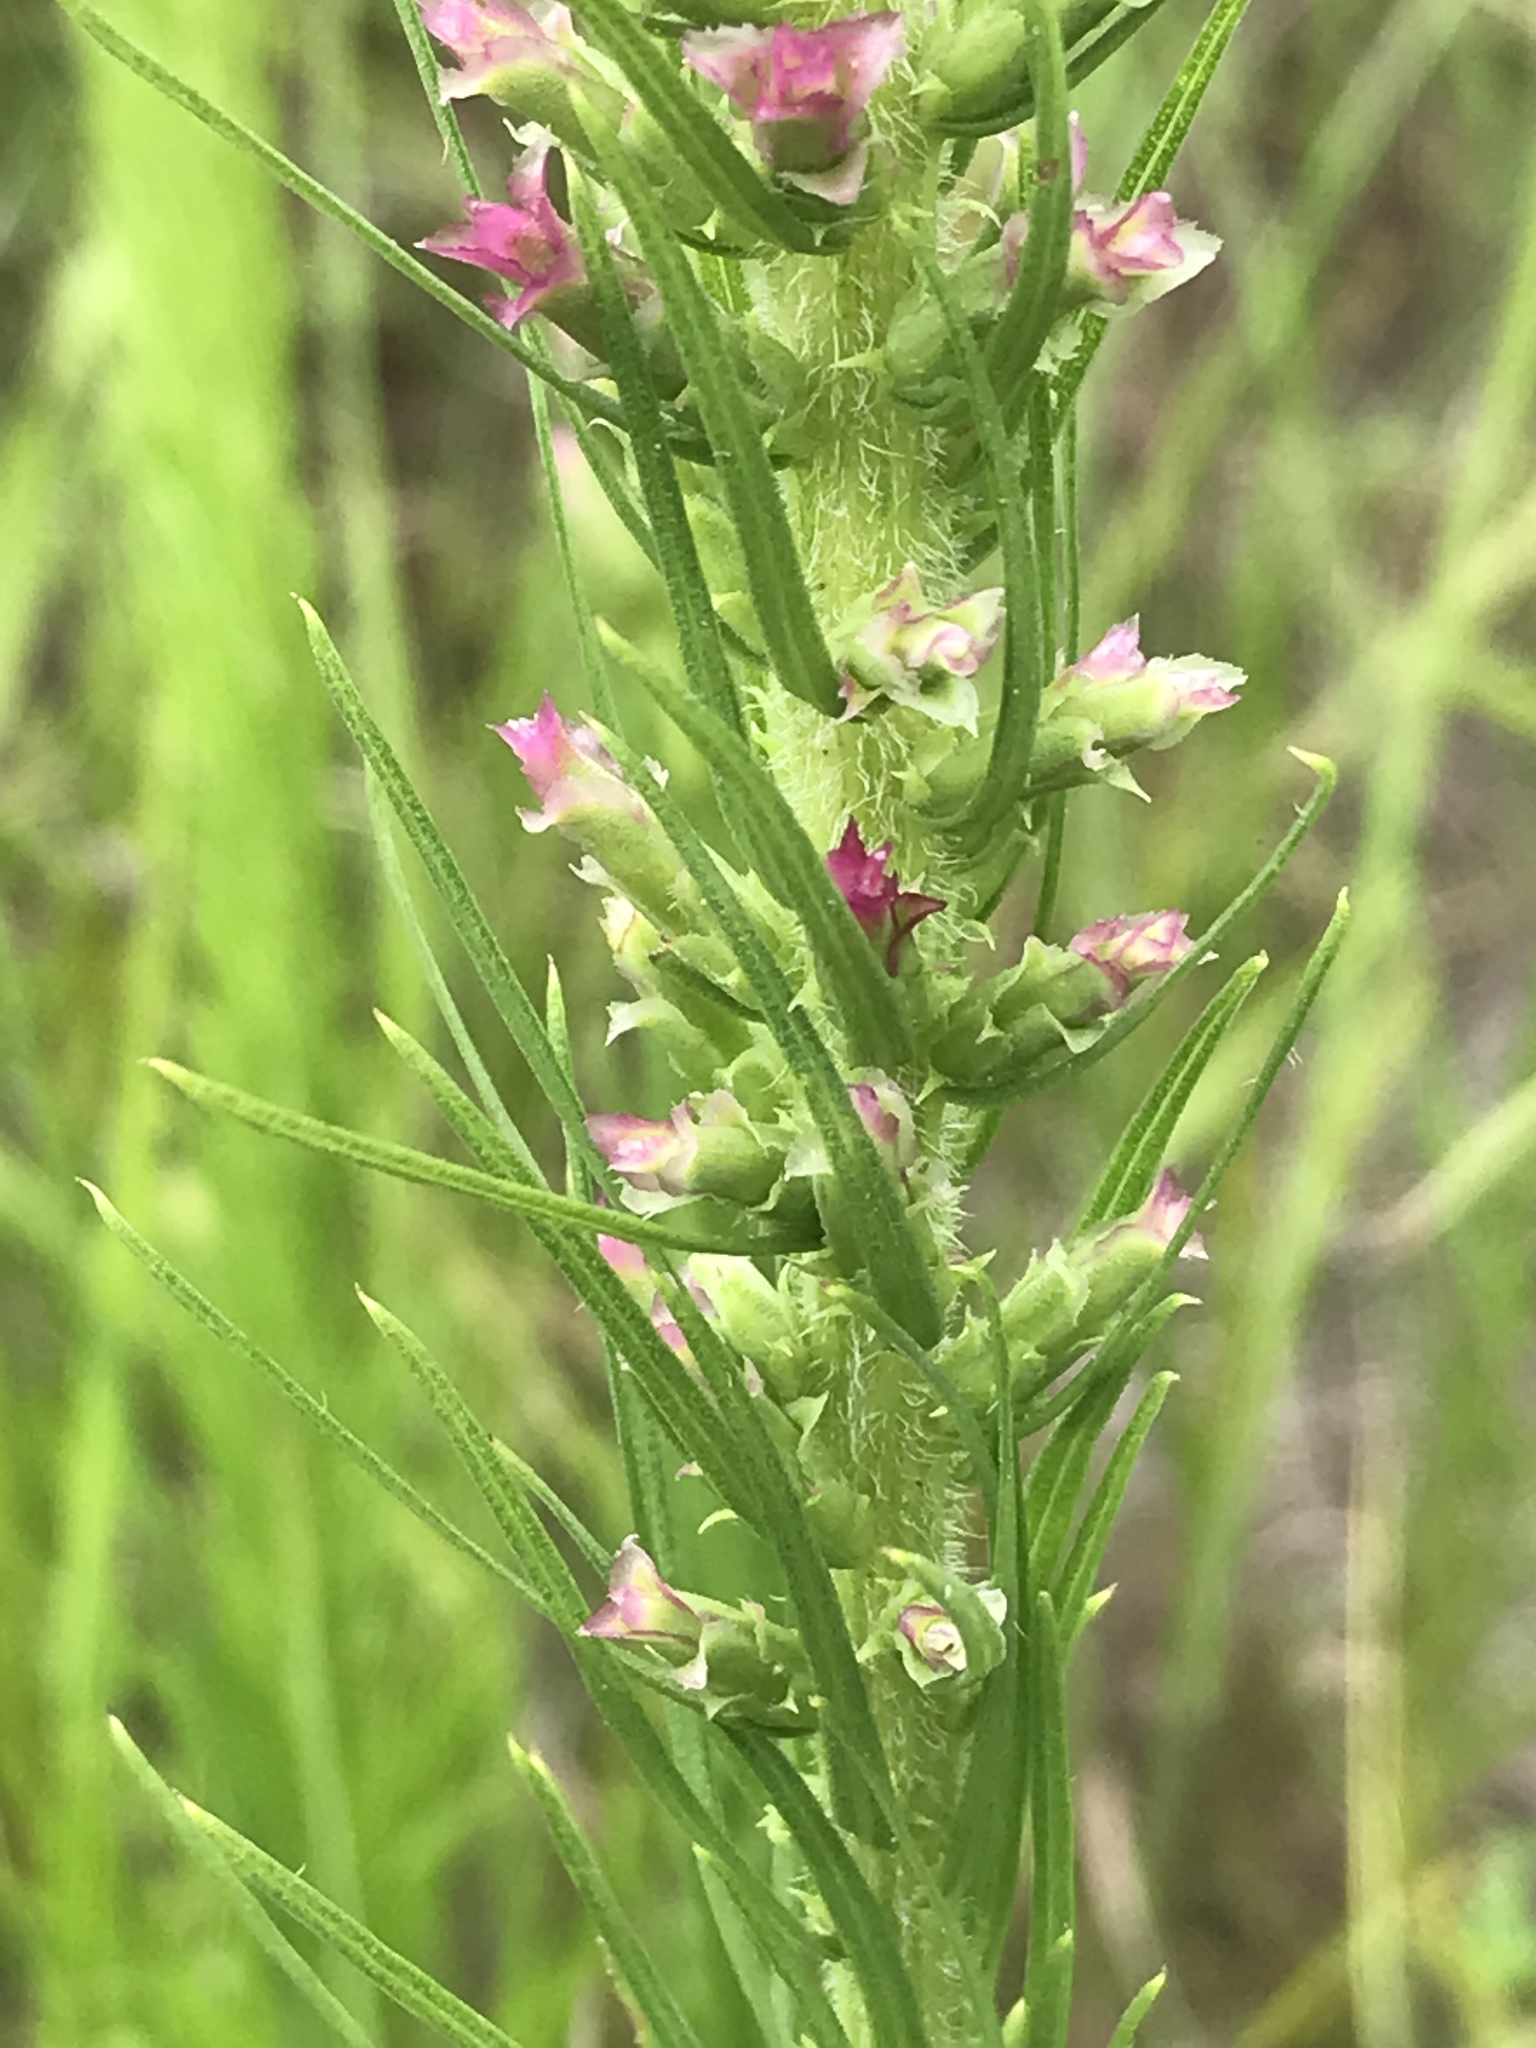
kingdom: Plantae
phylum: Tracheophyta
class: Magnoliopsida
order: Asterales
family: Asteraceae
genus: Liatris
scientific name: Liatris pycnostachya
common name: Cattail gayfeather
